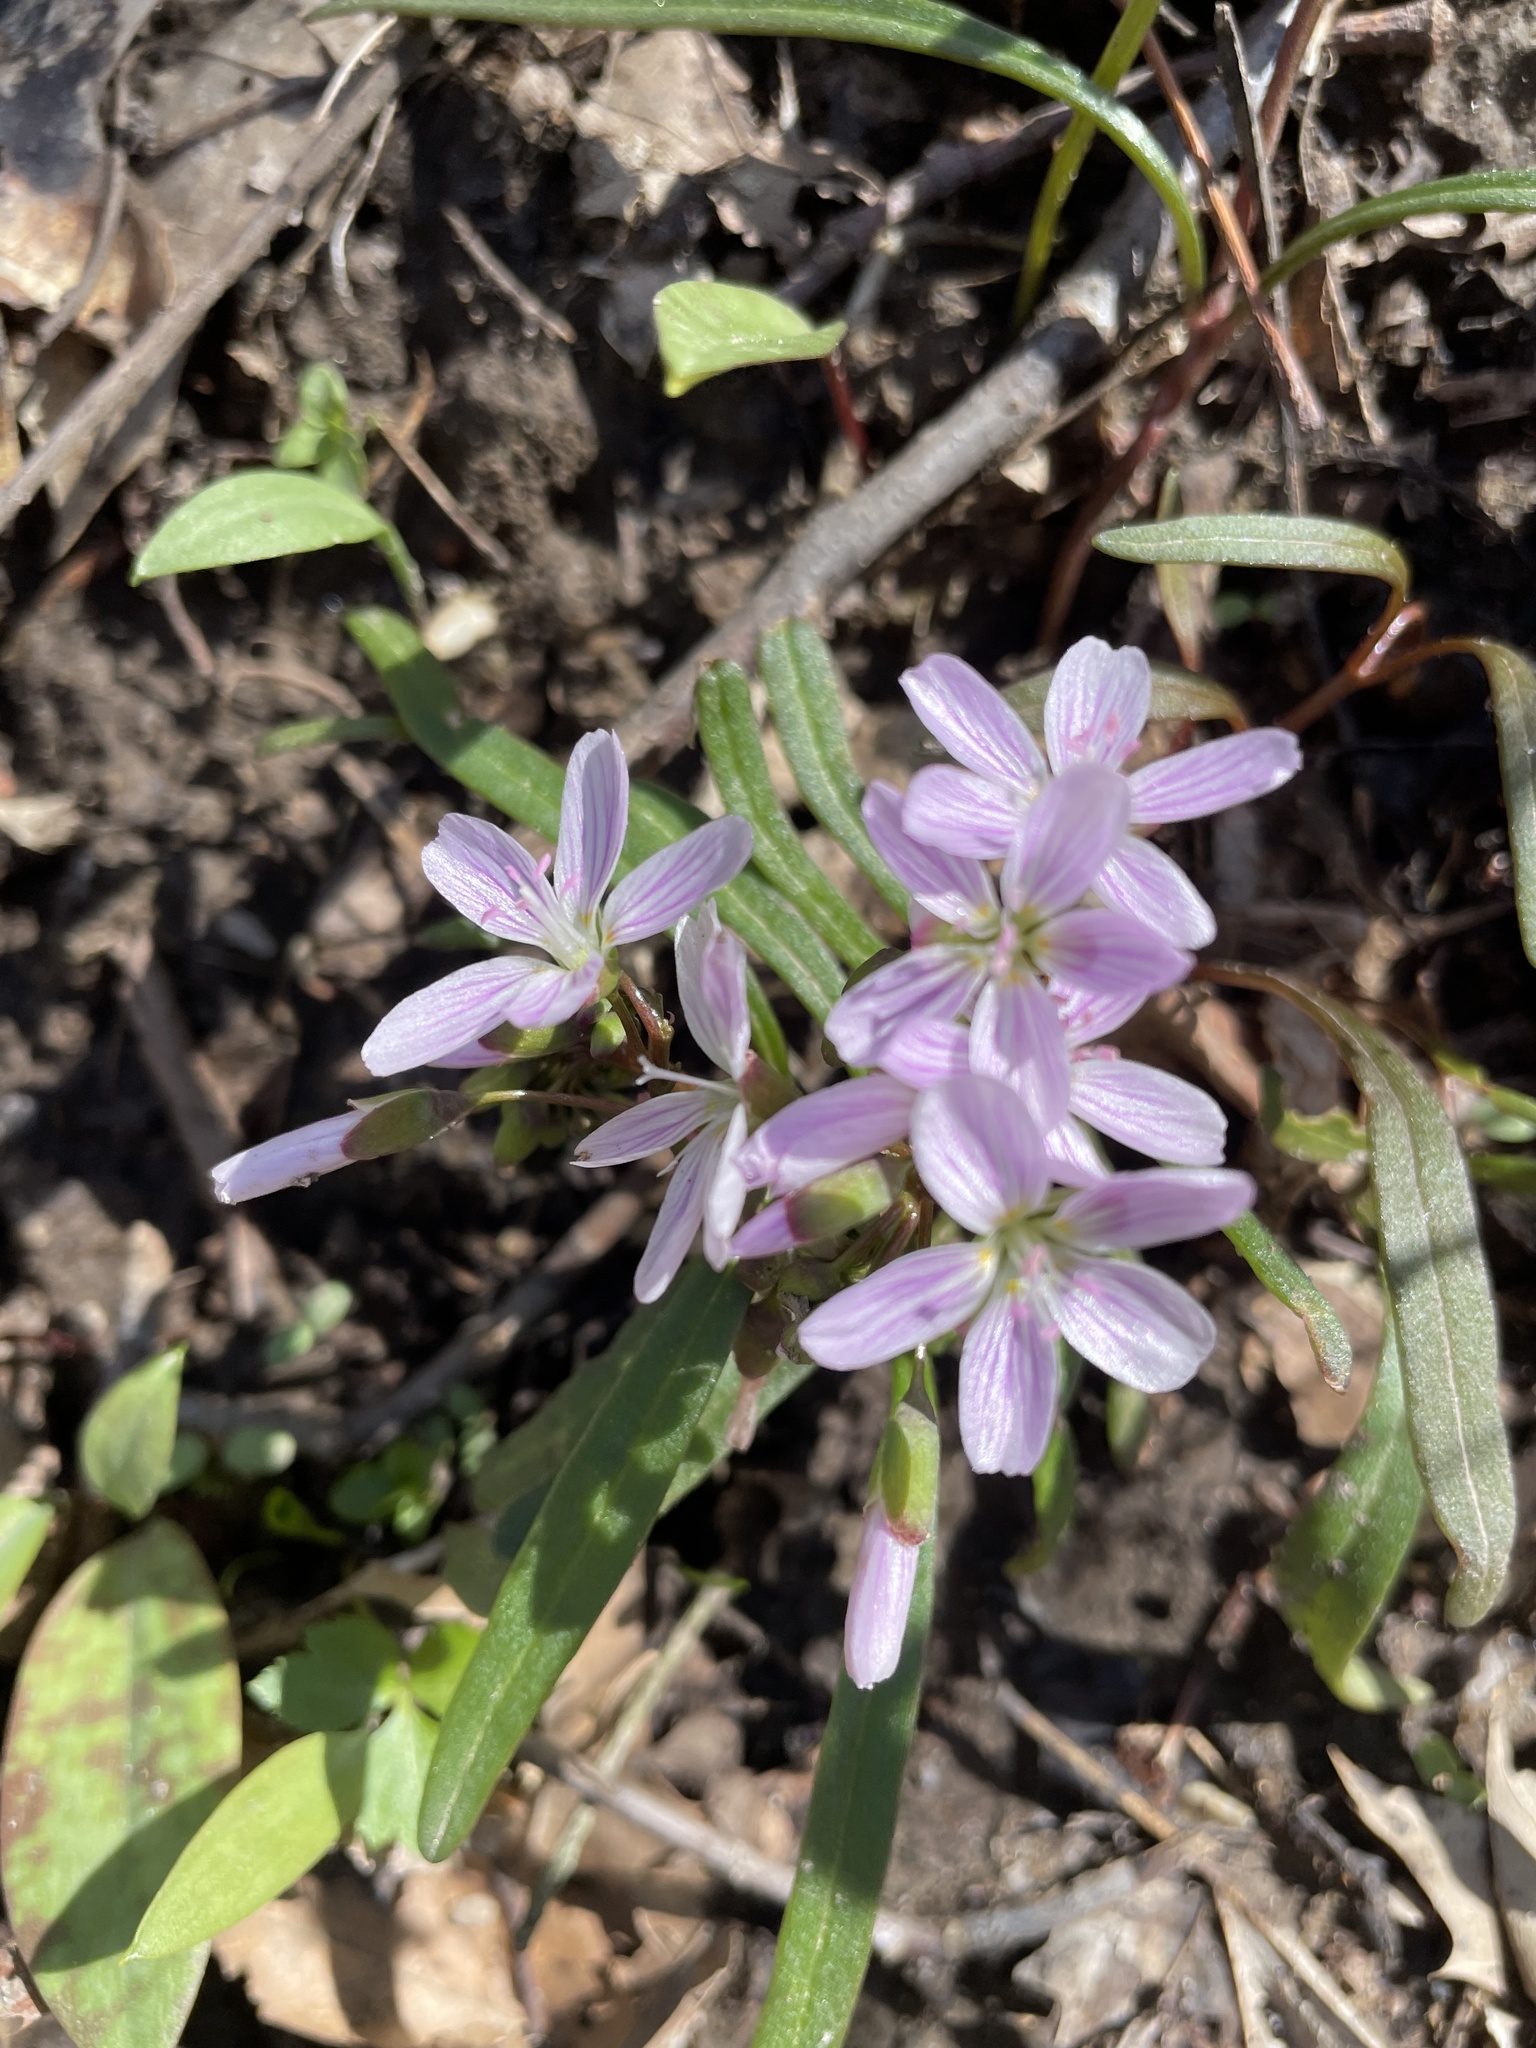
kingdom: Plantae
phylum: Tracheophyta
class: Magnoliopsida
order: Caryophyllales
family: Montiaceae
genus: Claytonia
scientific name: Claytonia virginica
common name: Virginia springbeauty
